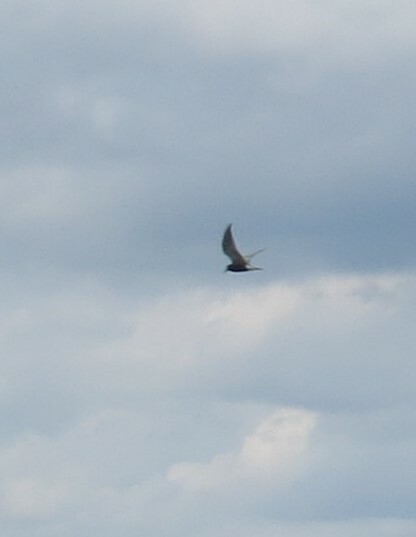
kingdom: Animalia
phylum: Chordata
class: Aves
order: Charadriiformes
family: Laridae
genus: Chlidonias
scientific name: Chlidonias niger
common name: Black tern
